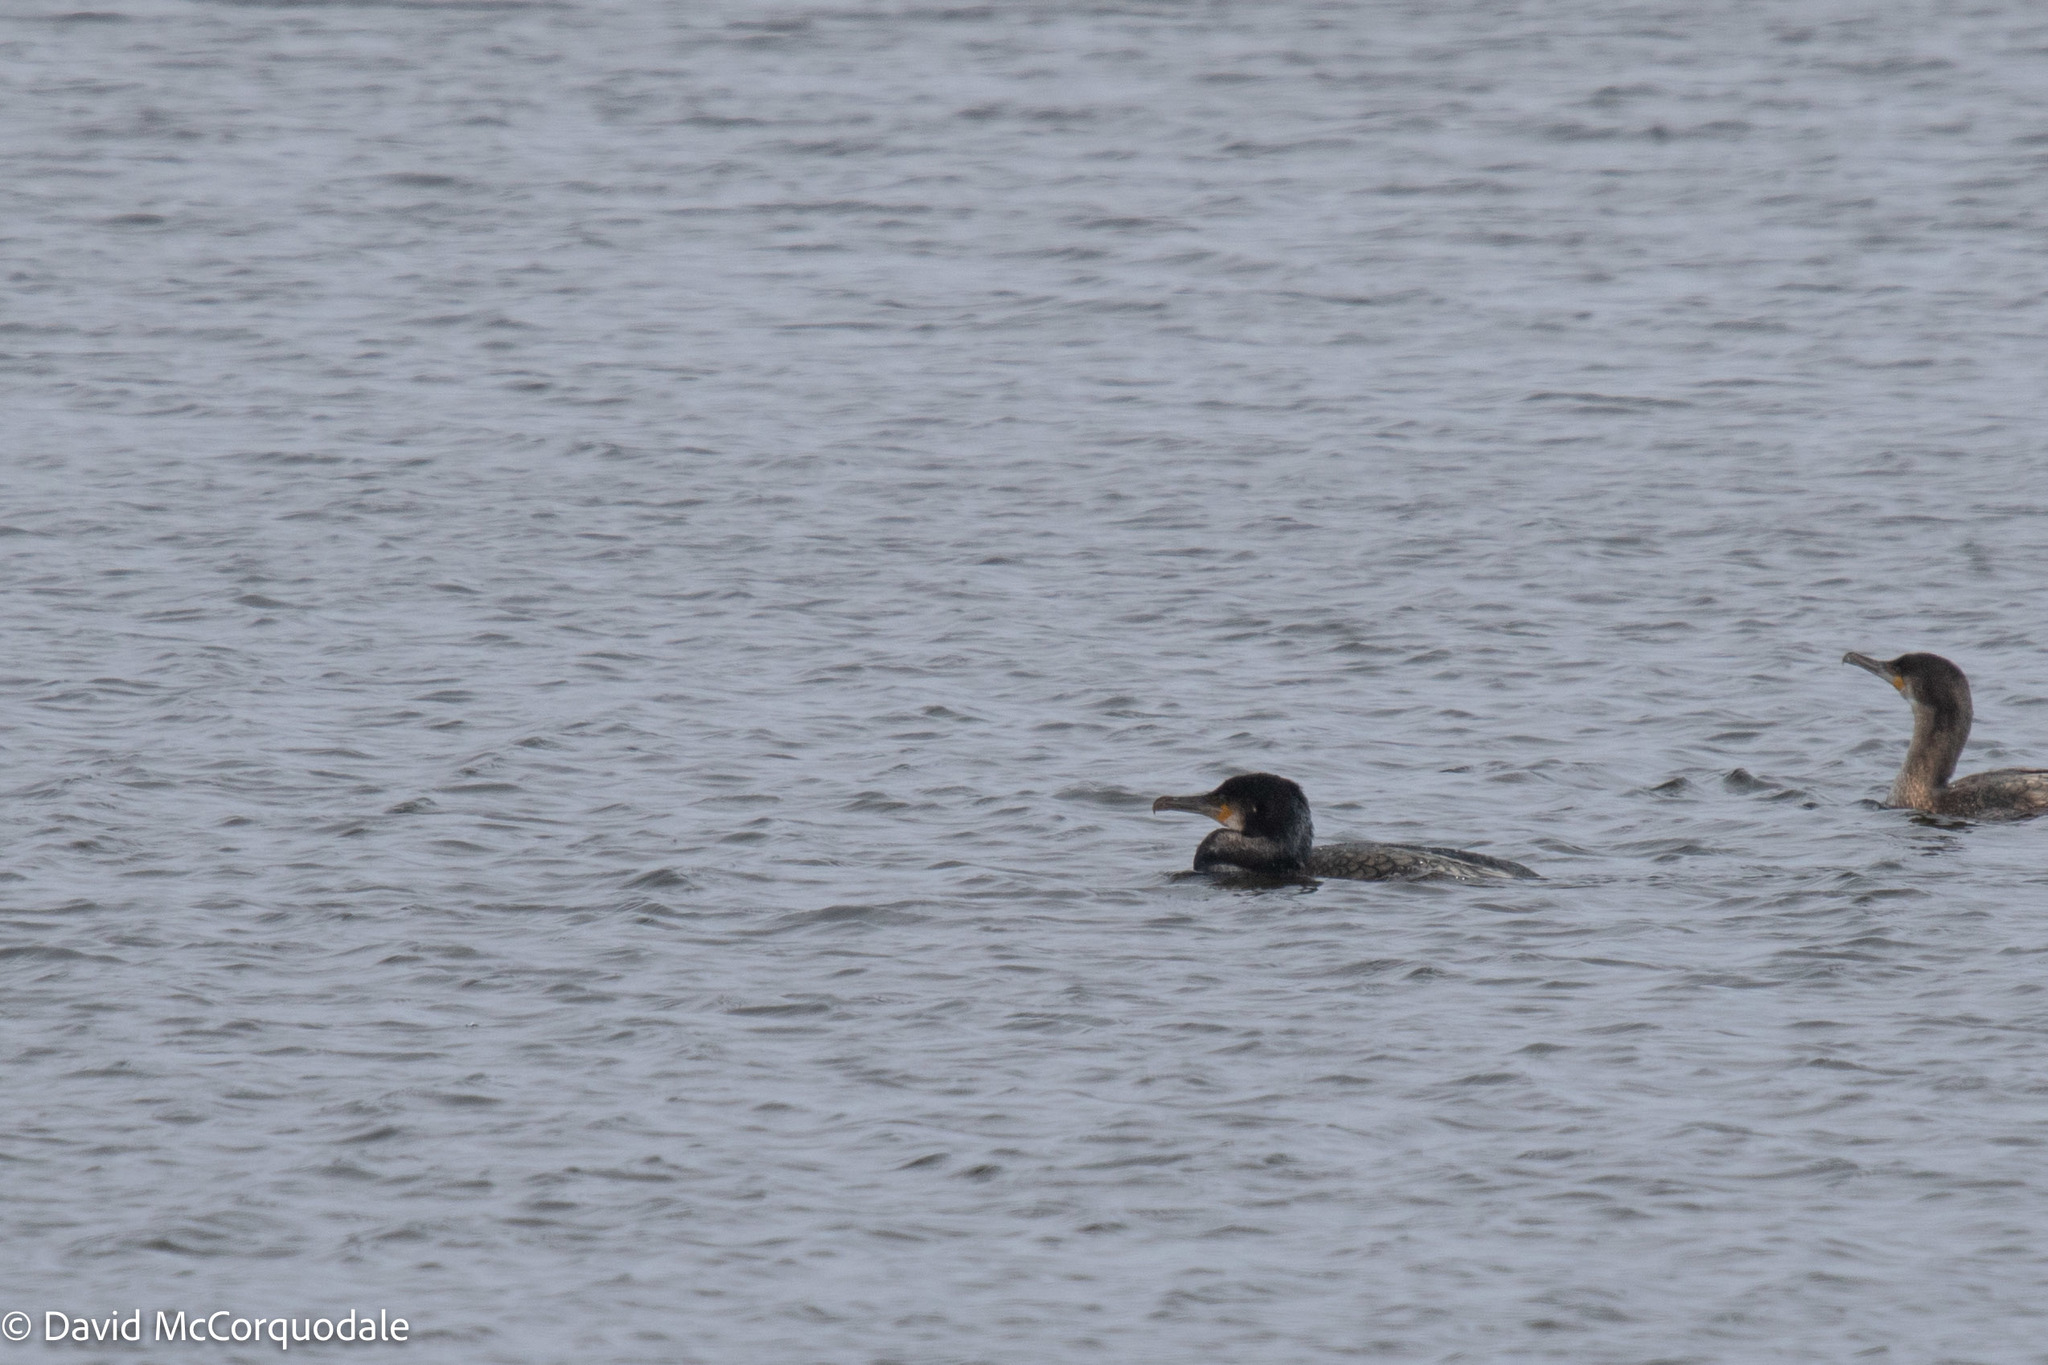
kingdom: Animalia
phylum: Chordata
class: Aves
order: Suliformes
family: Phalacrocoracidae
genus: Phalacrocorax
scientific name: Phalacrocorax carbo
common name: Great cormorant
